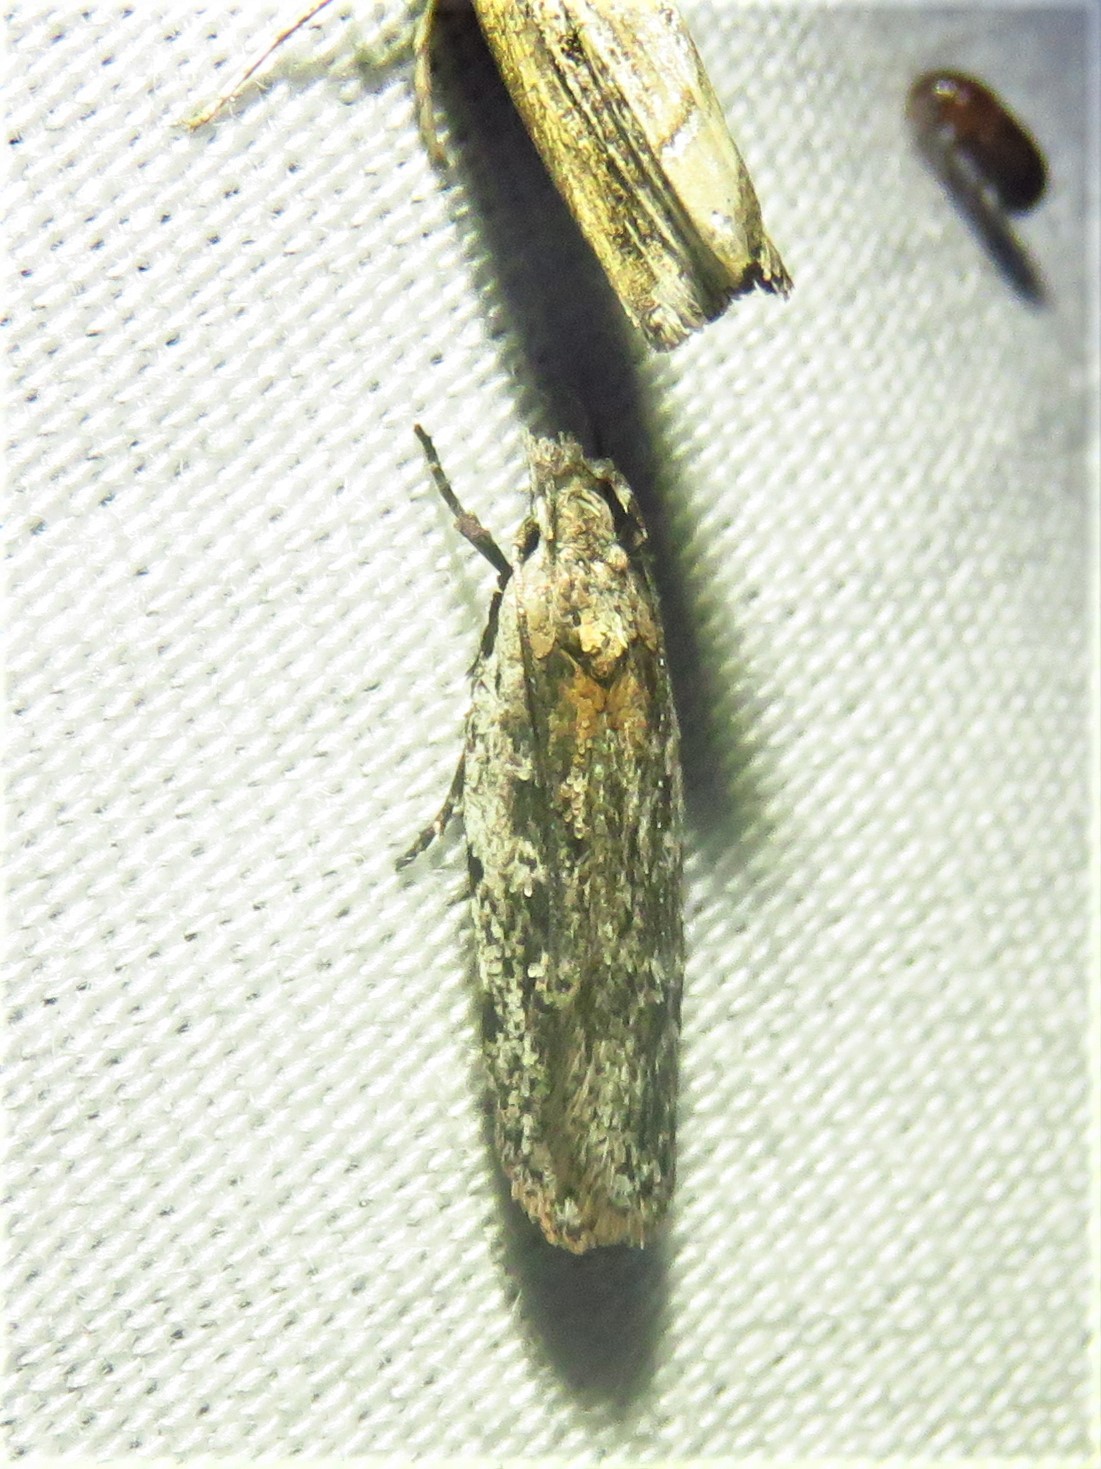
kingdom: Animalia
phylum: Arthropoda
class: Insecta
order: Lepidoptera
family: Gelechiidae
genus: Gelechia
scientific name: Gelechia bianulella
